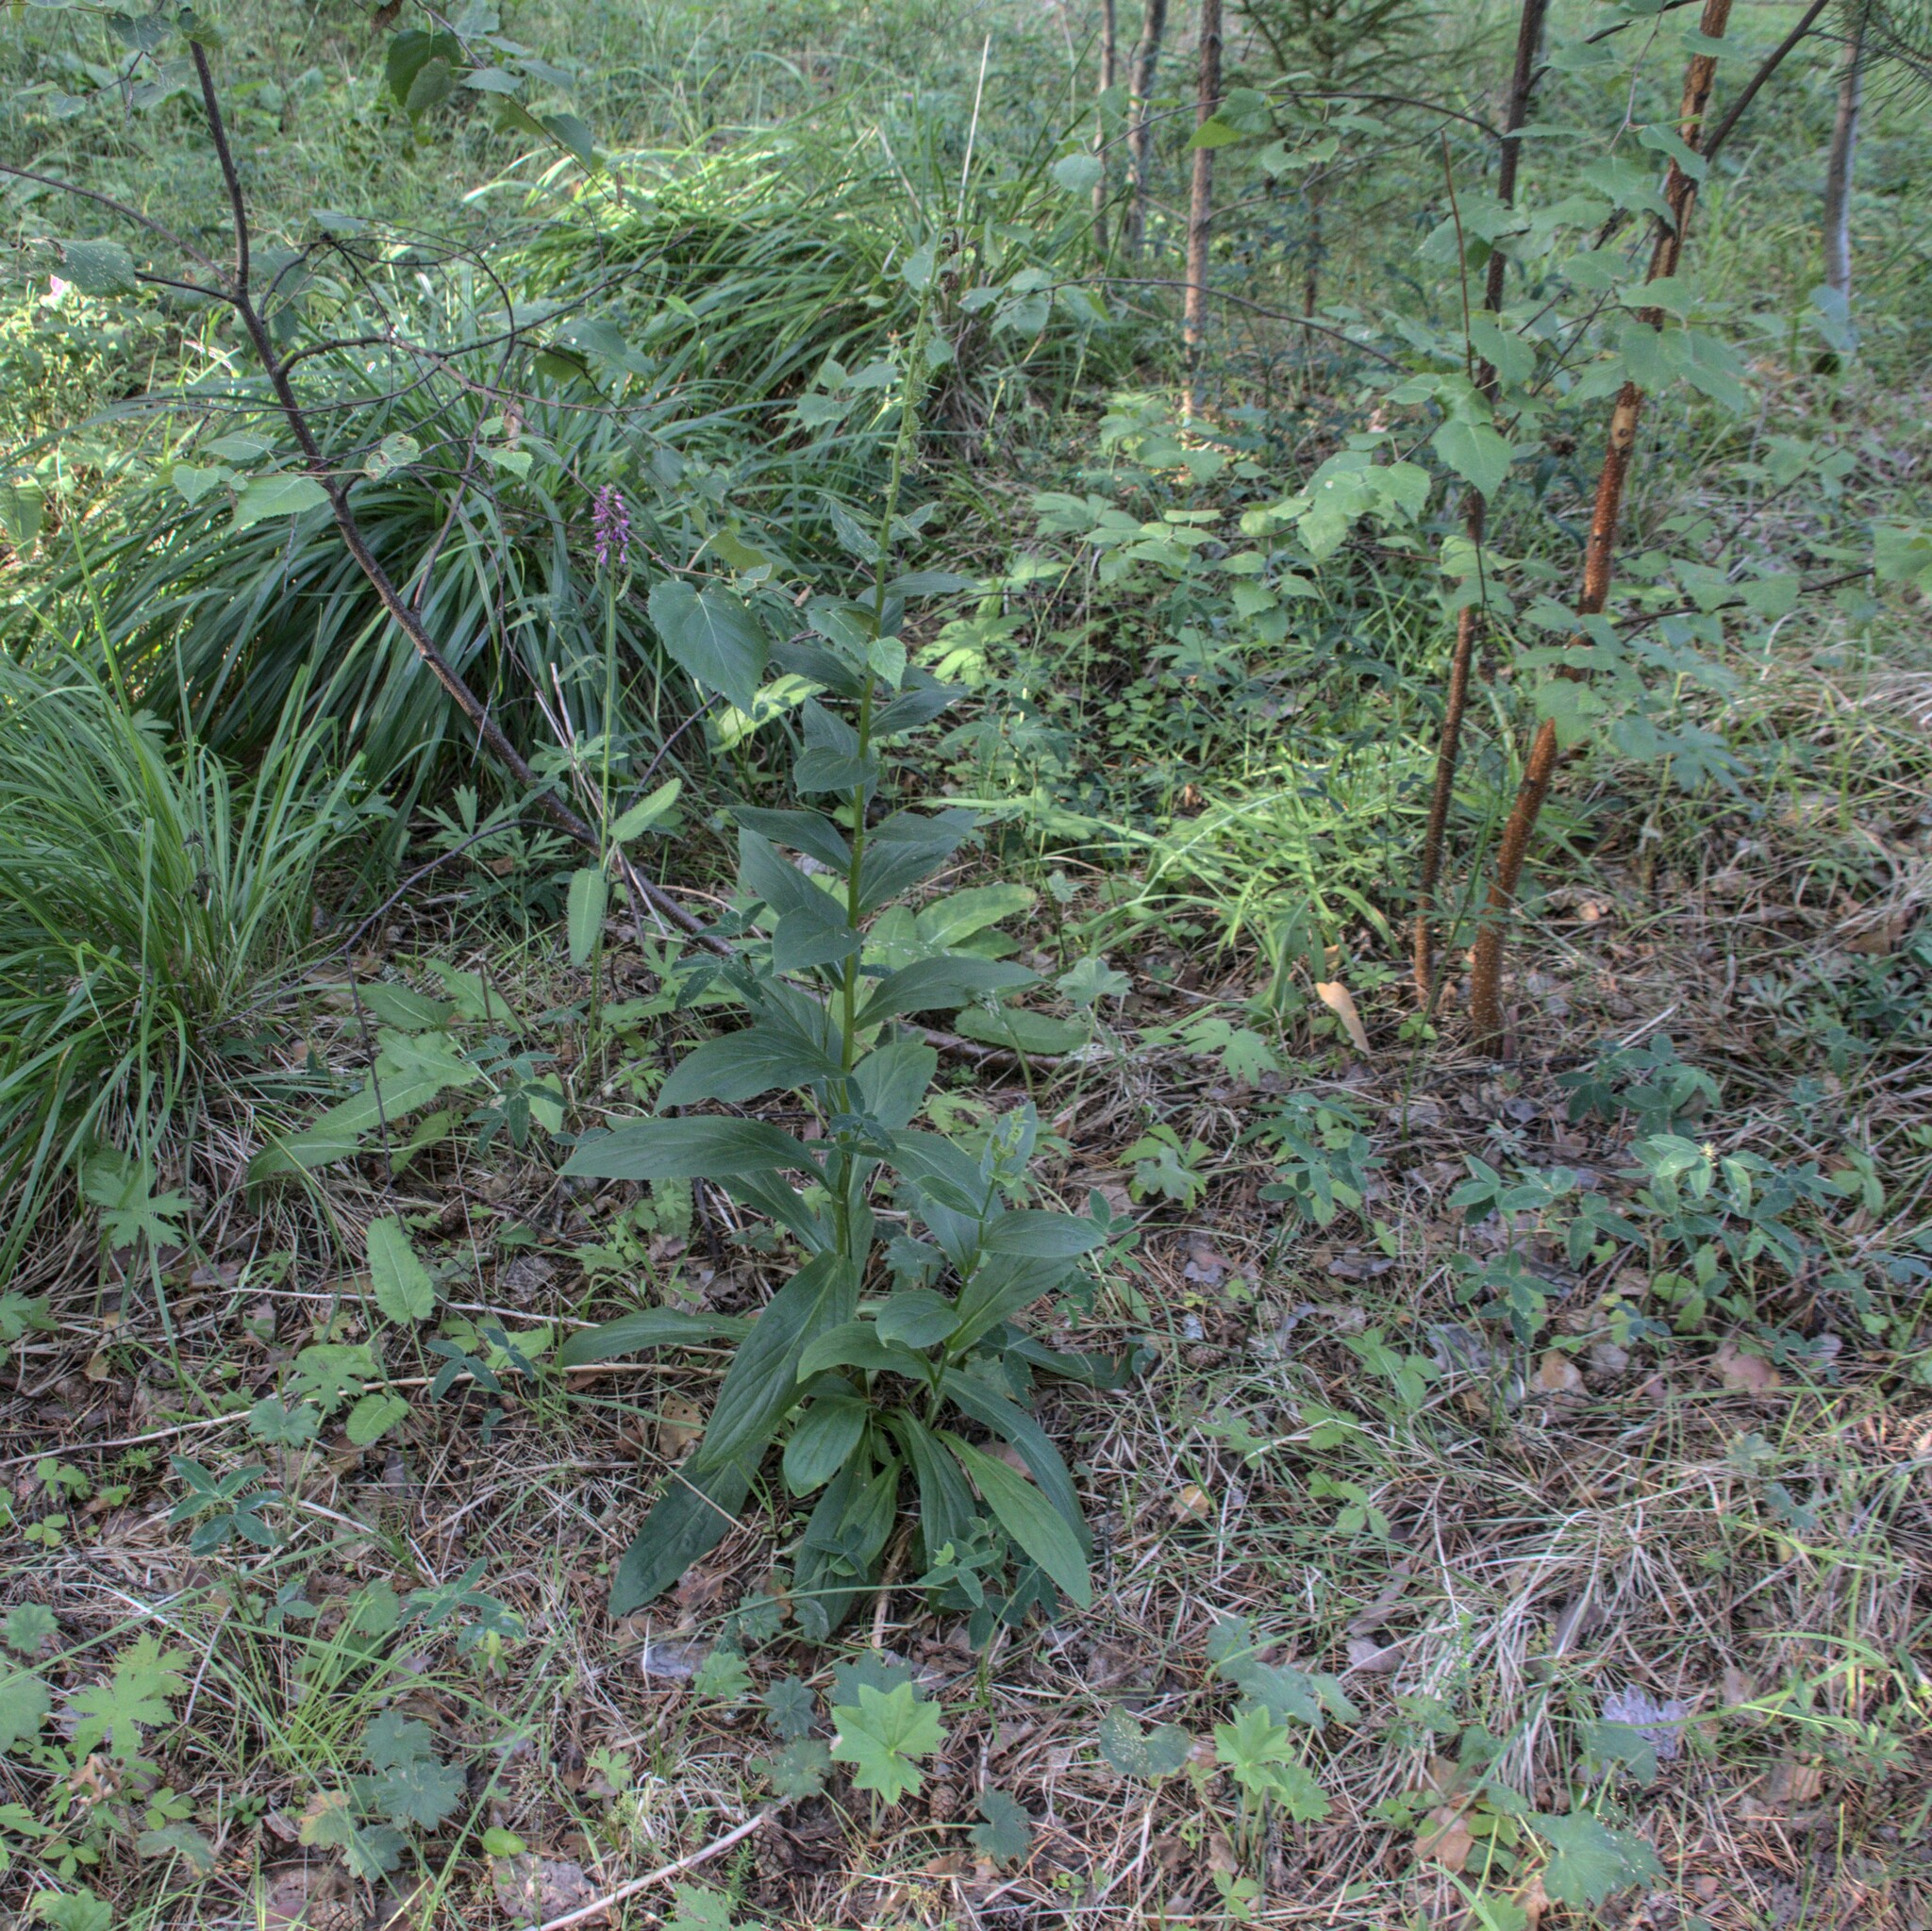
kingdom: Plantae
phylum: Tracheophyta
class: Magnoliopsida
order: Lamiales
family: Plantaginaceae
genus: Digitalis
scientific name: Digitalis grandiflora
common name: Yellow foxglove
